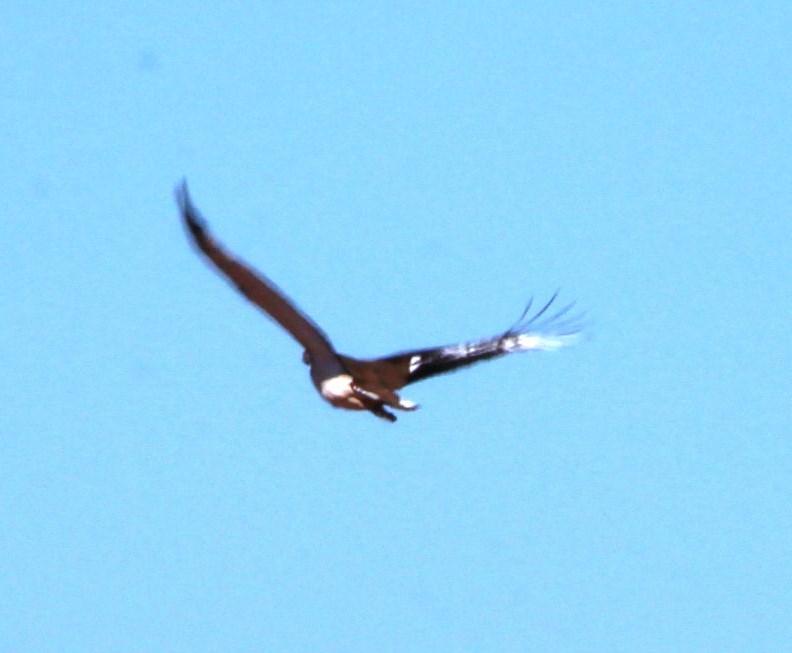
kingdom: Animalia
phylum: Chordata
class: Aves
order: Otidiformes
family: Otididae
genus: Neotis
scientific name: Neotis ludwigii
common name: Ludwig's bustard
